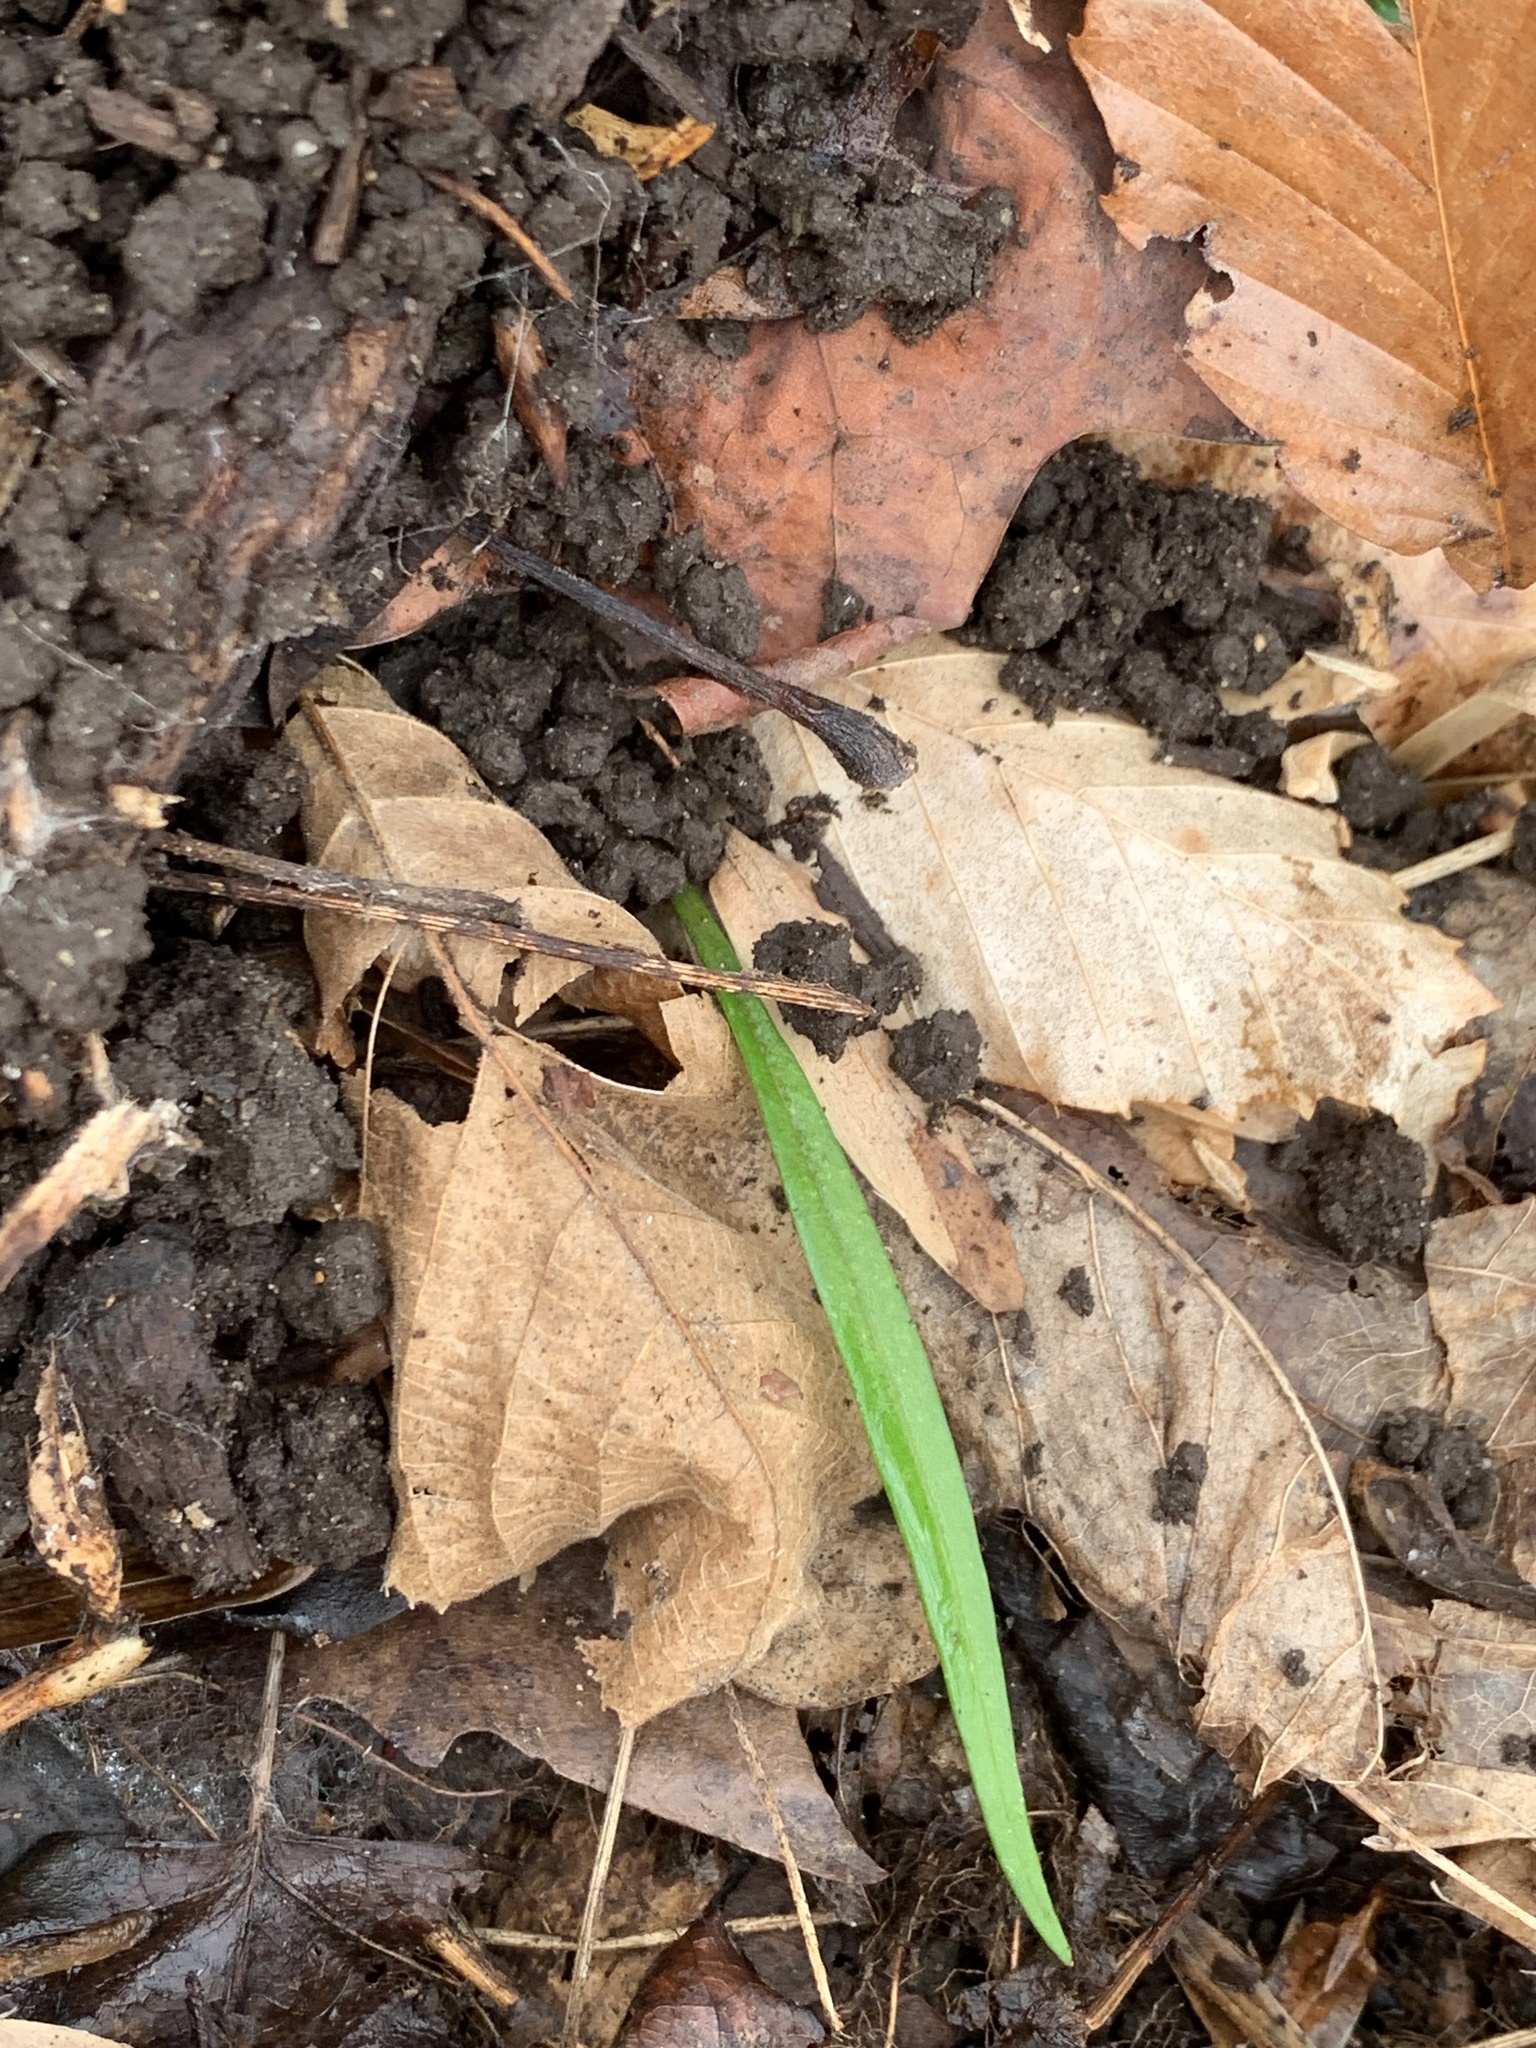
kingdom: Plantae
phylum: Tracheophyta
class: Magnoliopsida
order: Caryophyllales
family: Montiaceae
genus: Claytonia
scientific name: Claytonia virginica
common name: Virginia springbeauty
